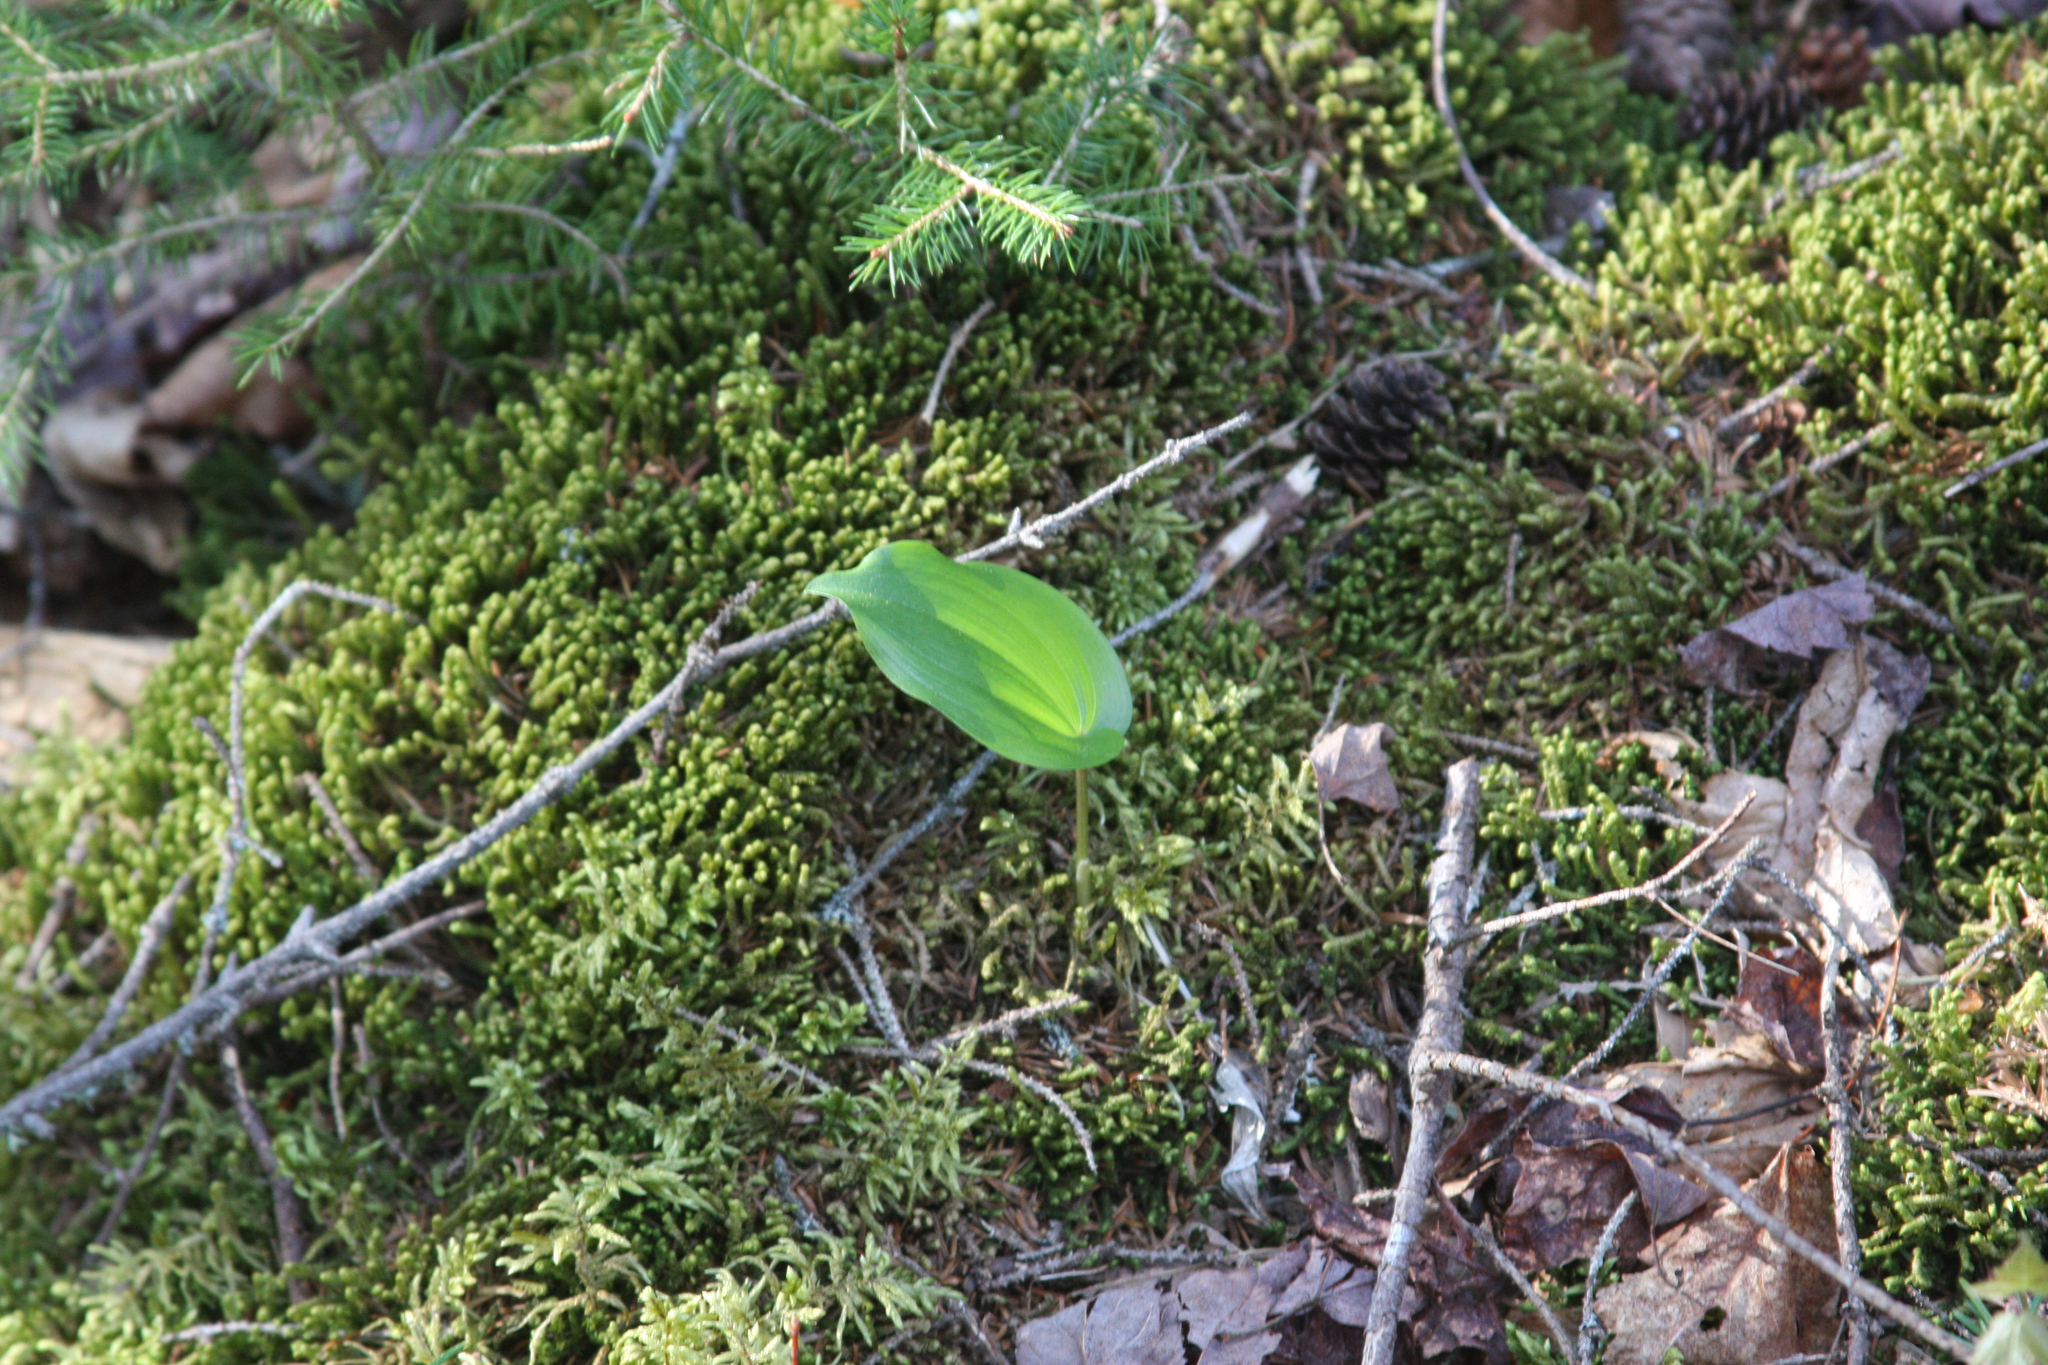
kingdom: Plantae
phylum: Tracheophyta
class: Liliopsida
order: Asparagales
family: Asparagaceae
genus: Maianthemum
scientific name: Maianthemum canadense
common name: False lily-of-the-valley
